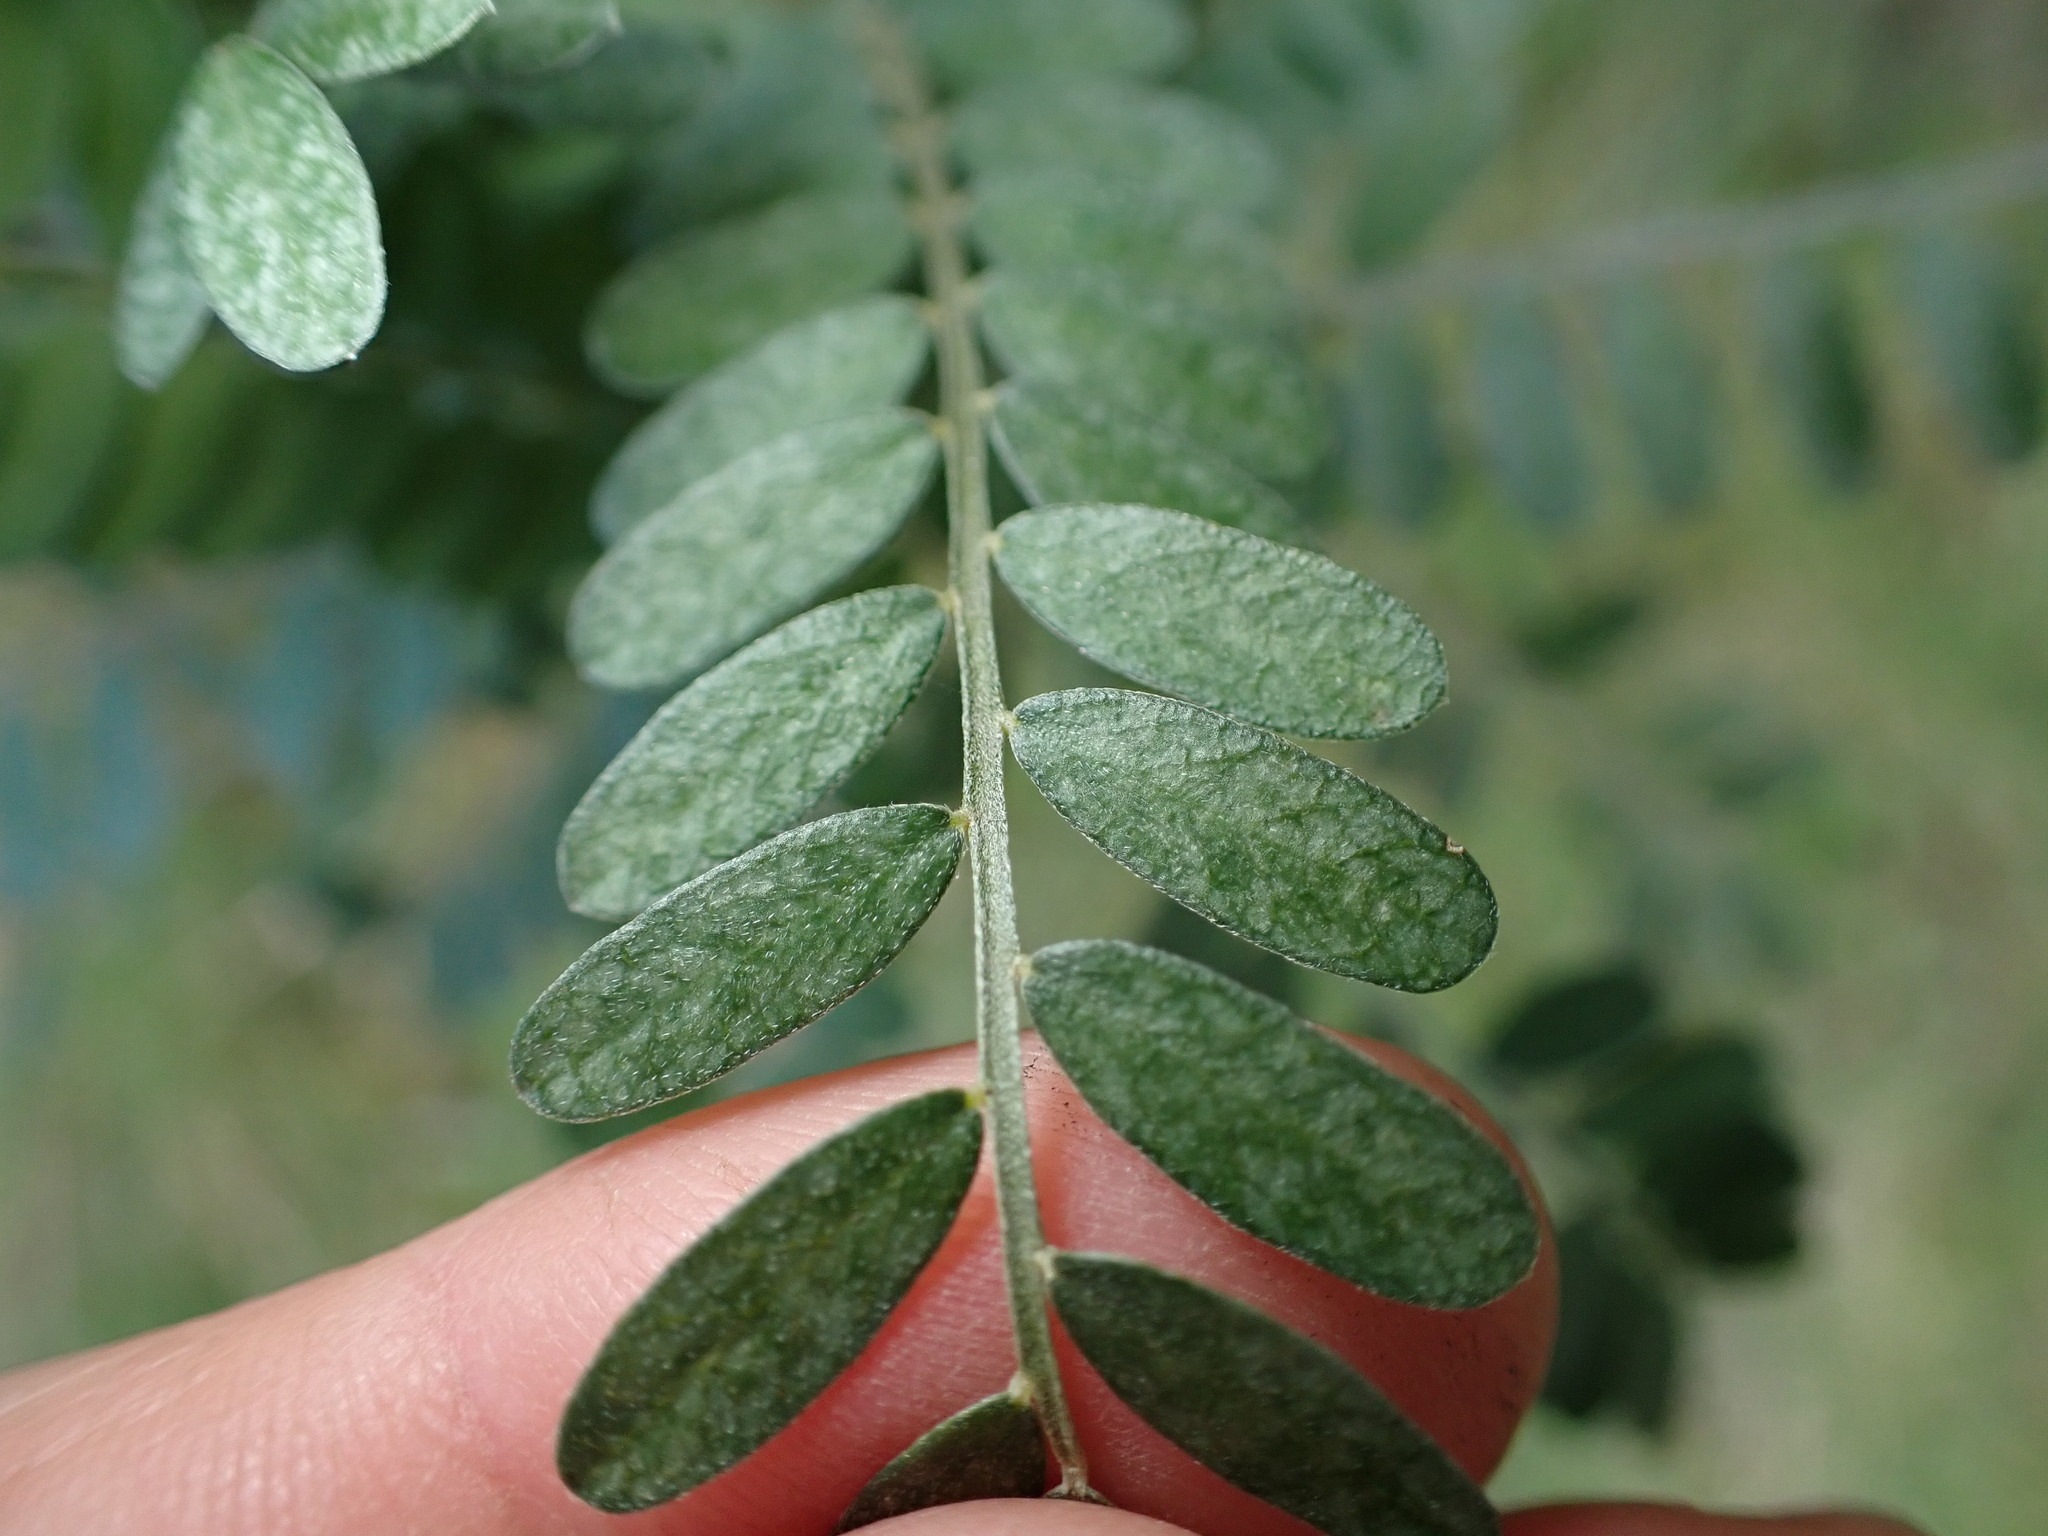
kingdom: Plantae
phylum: Tracheophyta
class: Magnoliopsida
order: Fabales
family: Fabaceae
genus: Sophora
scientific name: Sophora molloyi
